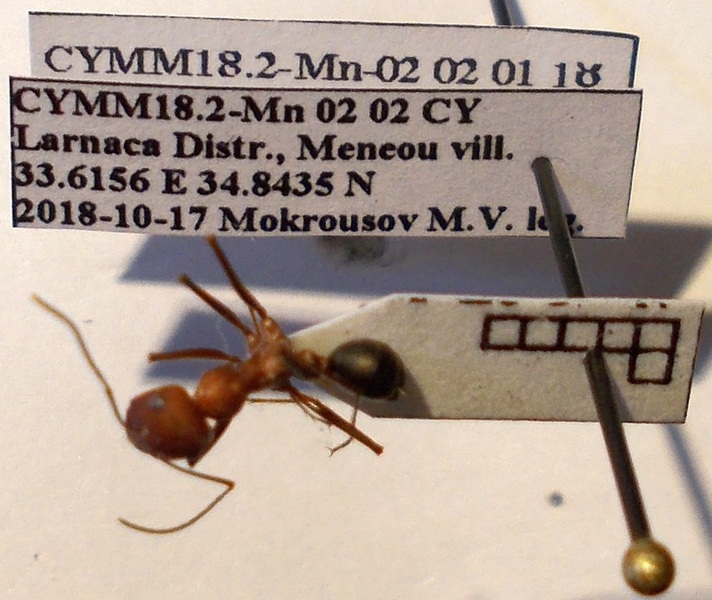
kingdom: Animalia
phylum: Arthropoda
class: Insecta
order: Hymenoptera
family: Formicidae
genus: Cataglyphis
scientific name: Cataglyphis aphrodite
